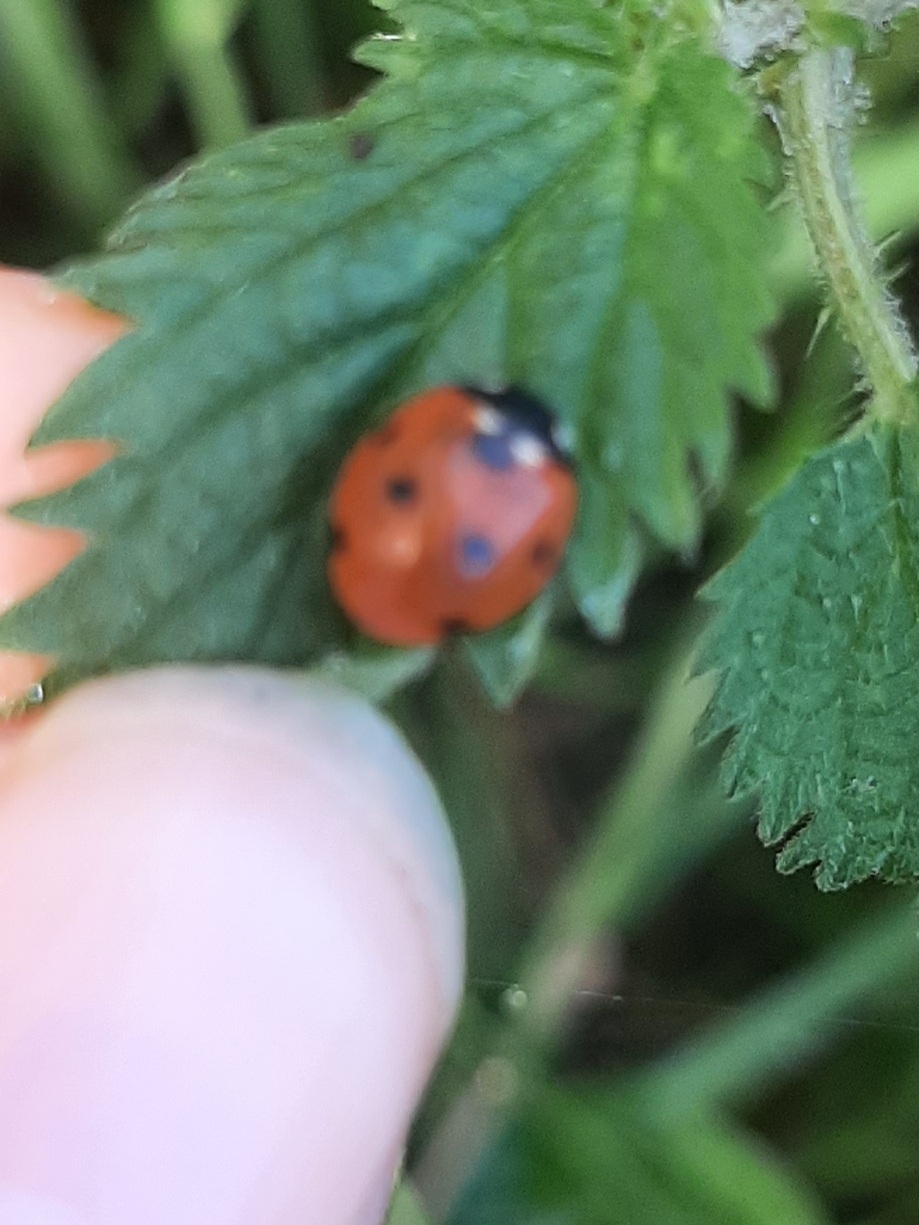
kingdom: Animalia
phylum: Arthropoda
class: Insecta
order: Coleoptera
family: Coccinellidae
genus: Coccinella
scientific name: Coccinella septempunctata
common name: Sevenspotted lady beetle
